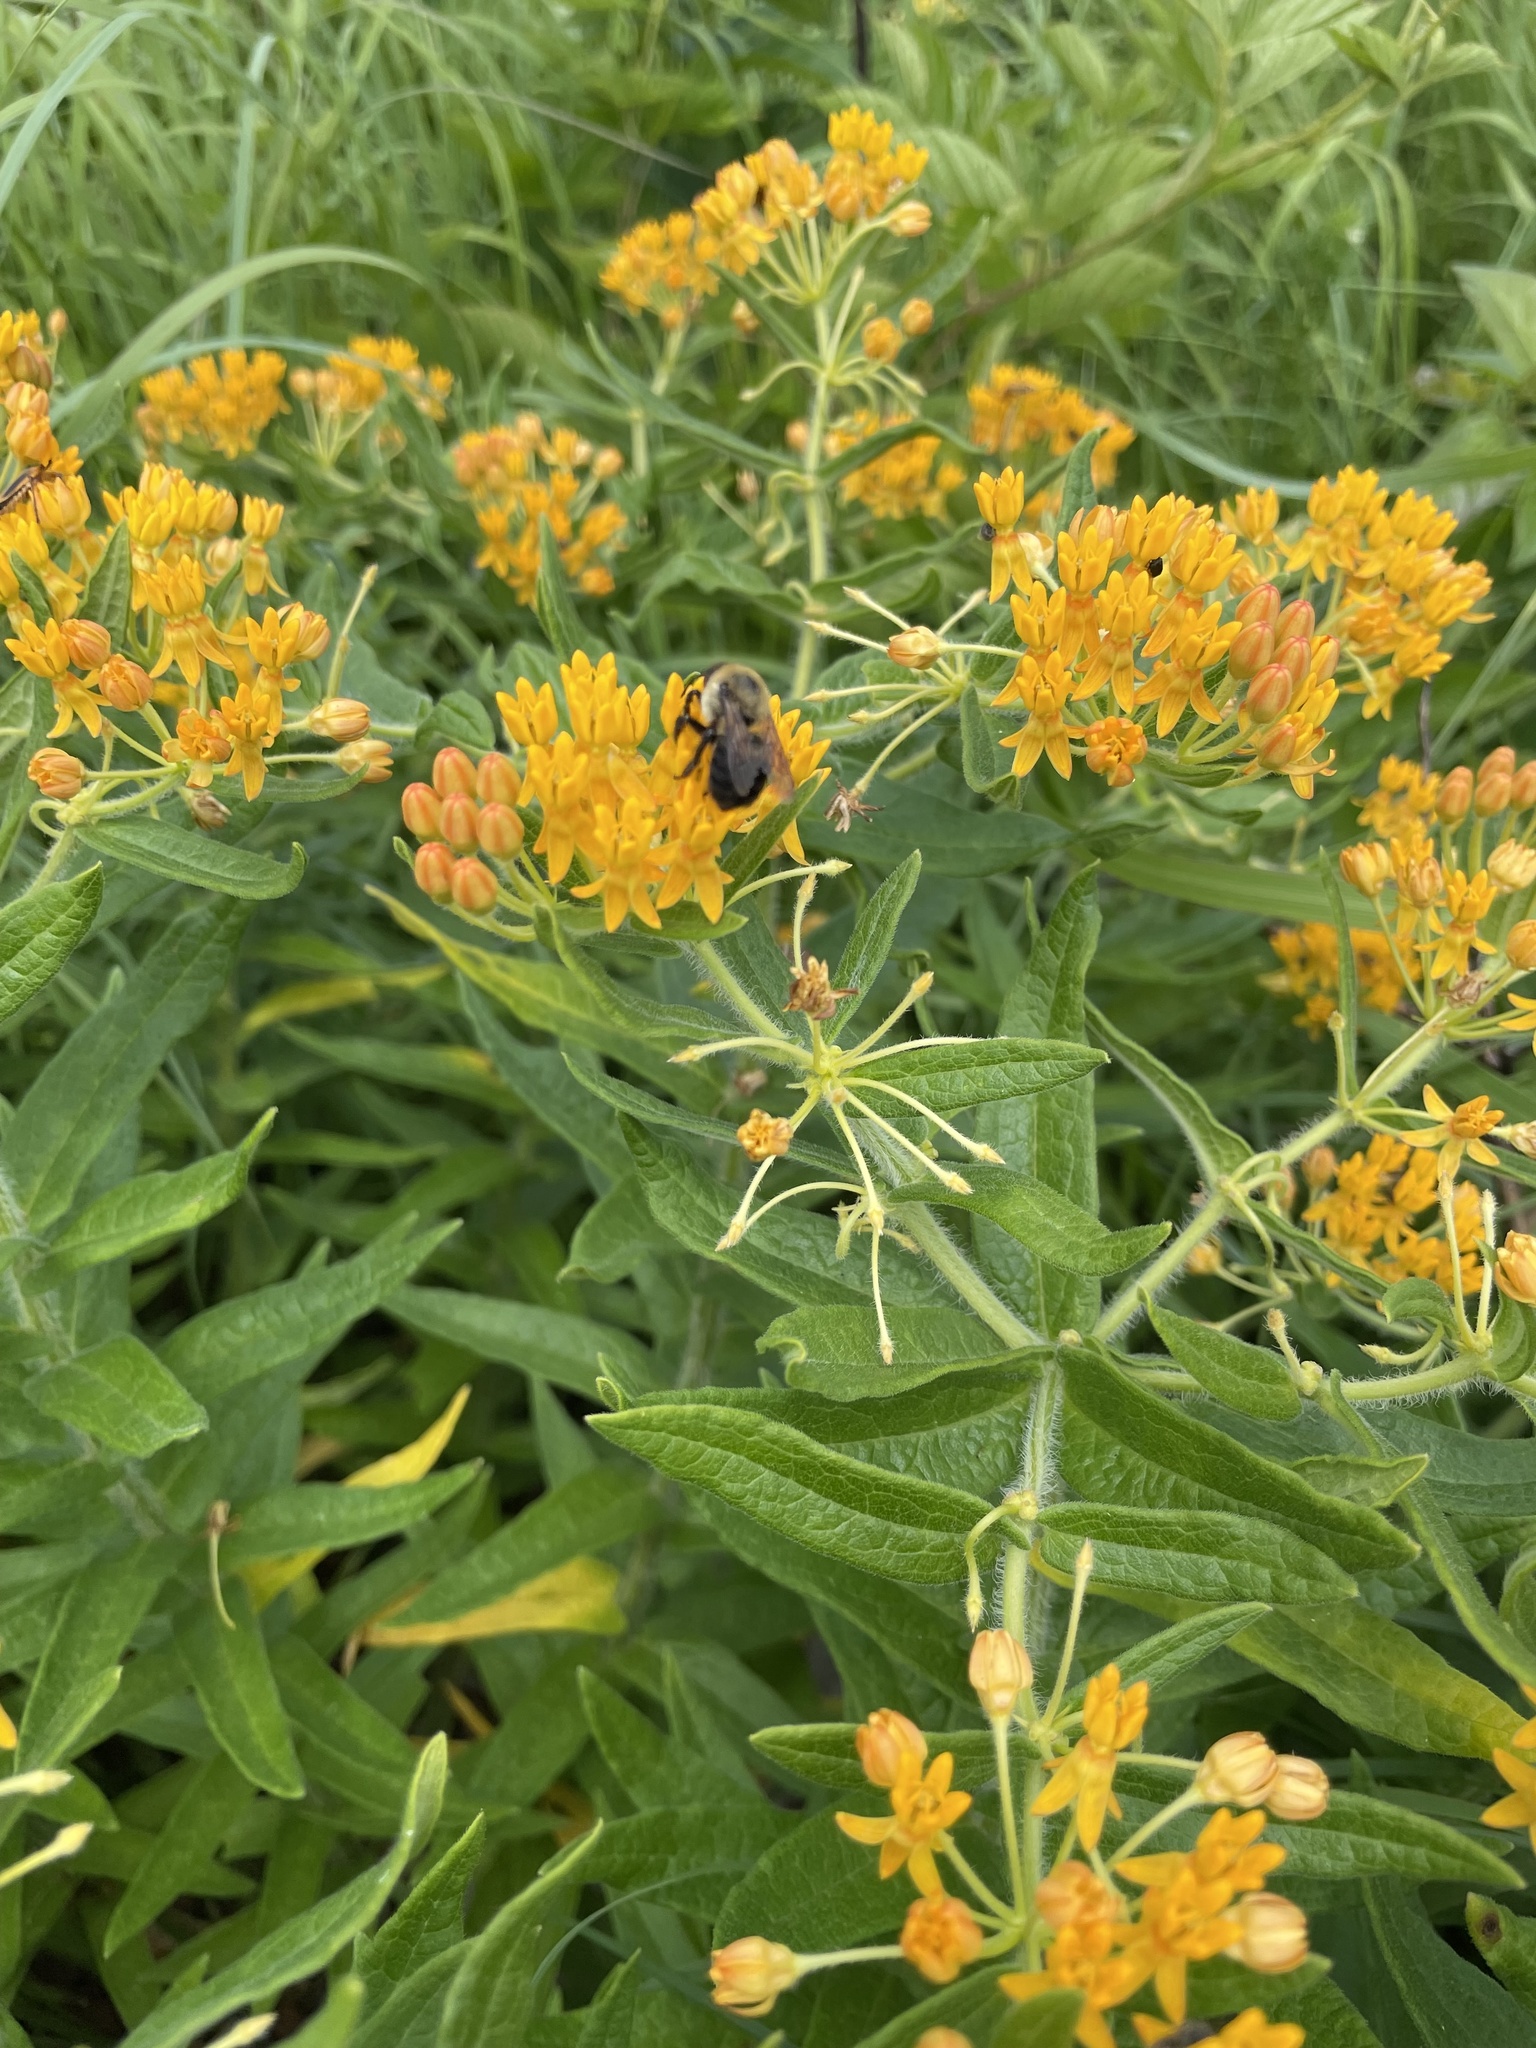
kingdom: Animalia
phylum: Arthropoda
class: Insecta
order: Hymenoptera
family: Apidae
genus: Bombus
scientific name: Bombus griseocollis
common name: Brown-belted bumble bee
